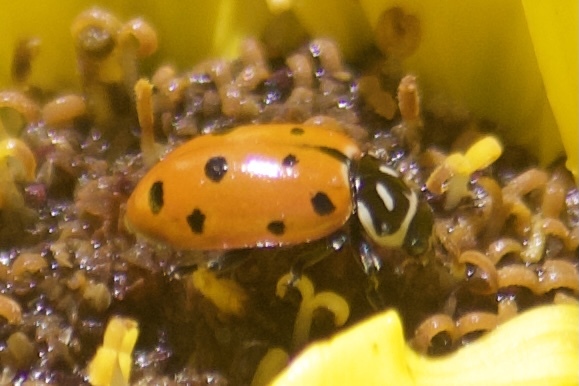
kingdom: Animalia
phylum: Arthropoda
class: Insecta
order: Coleoptera
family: Coccinellidae
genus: Hippodamia
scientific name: Hippodamia convergens
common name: Convergent lady beetle
